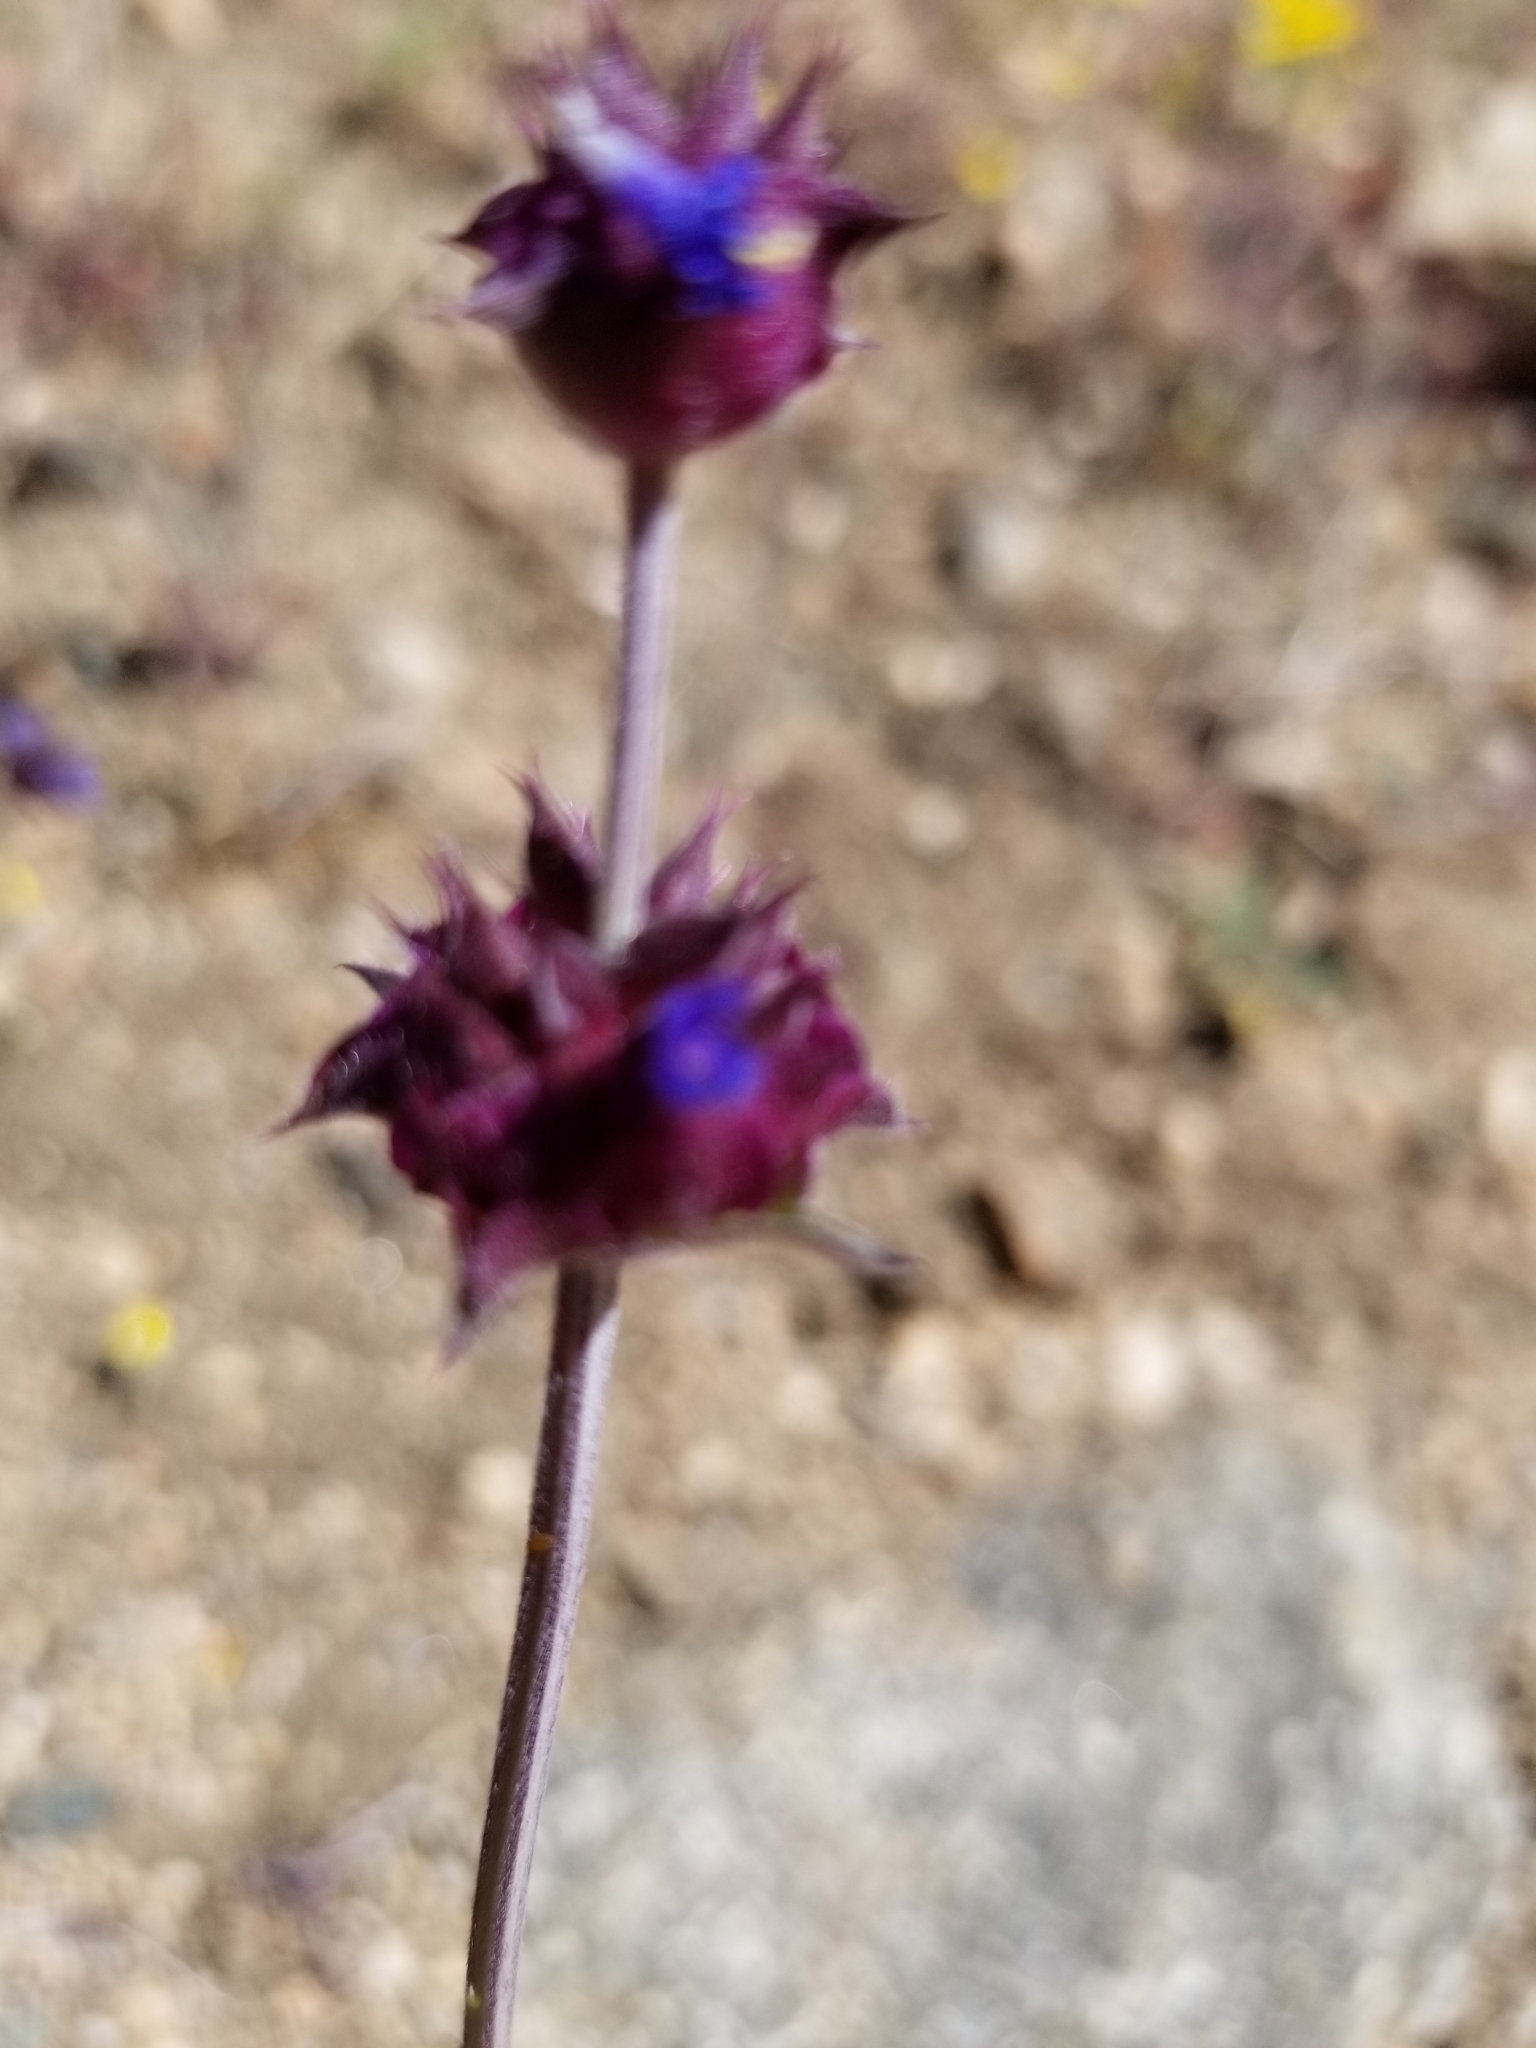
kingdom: Plantae
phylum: Tracheophyta
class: Magnoliopsida
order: Lamiales
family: Lamiaceae
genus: Salvia
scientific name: Salvia columbariae
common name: Chia
